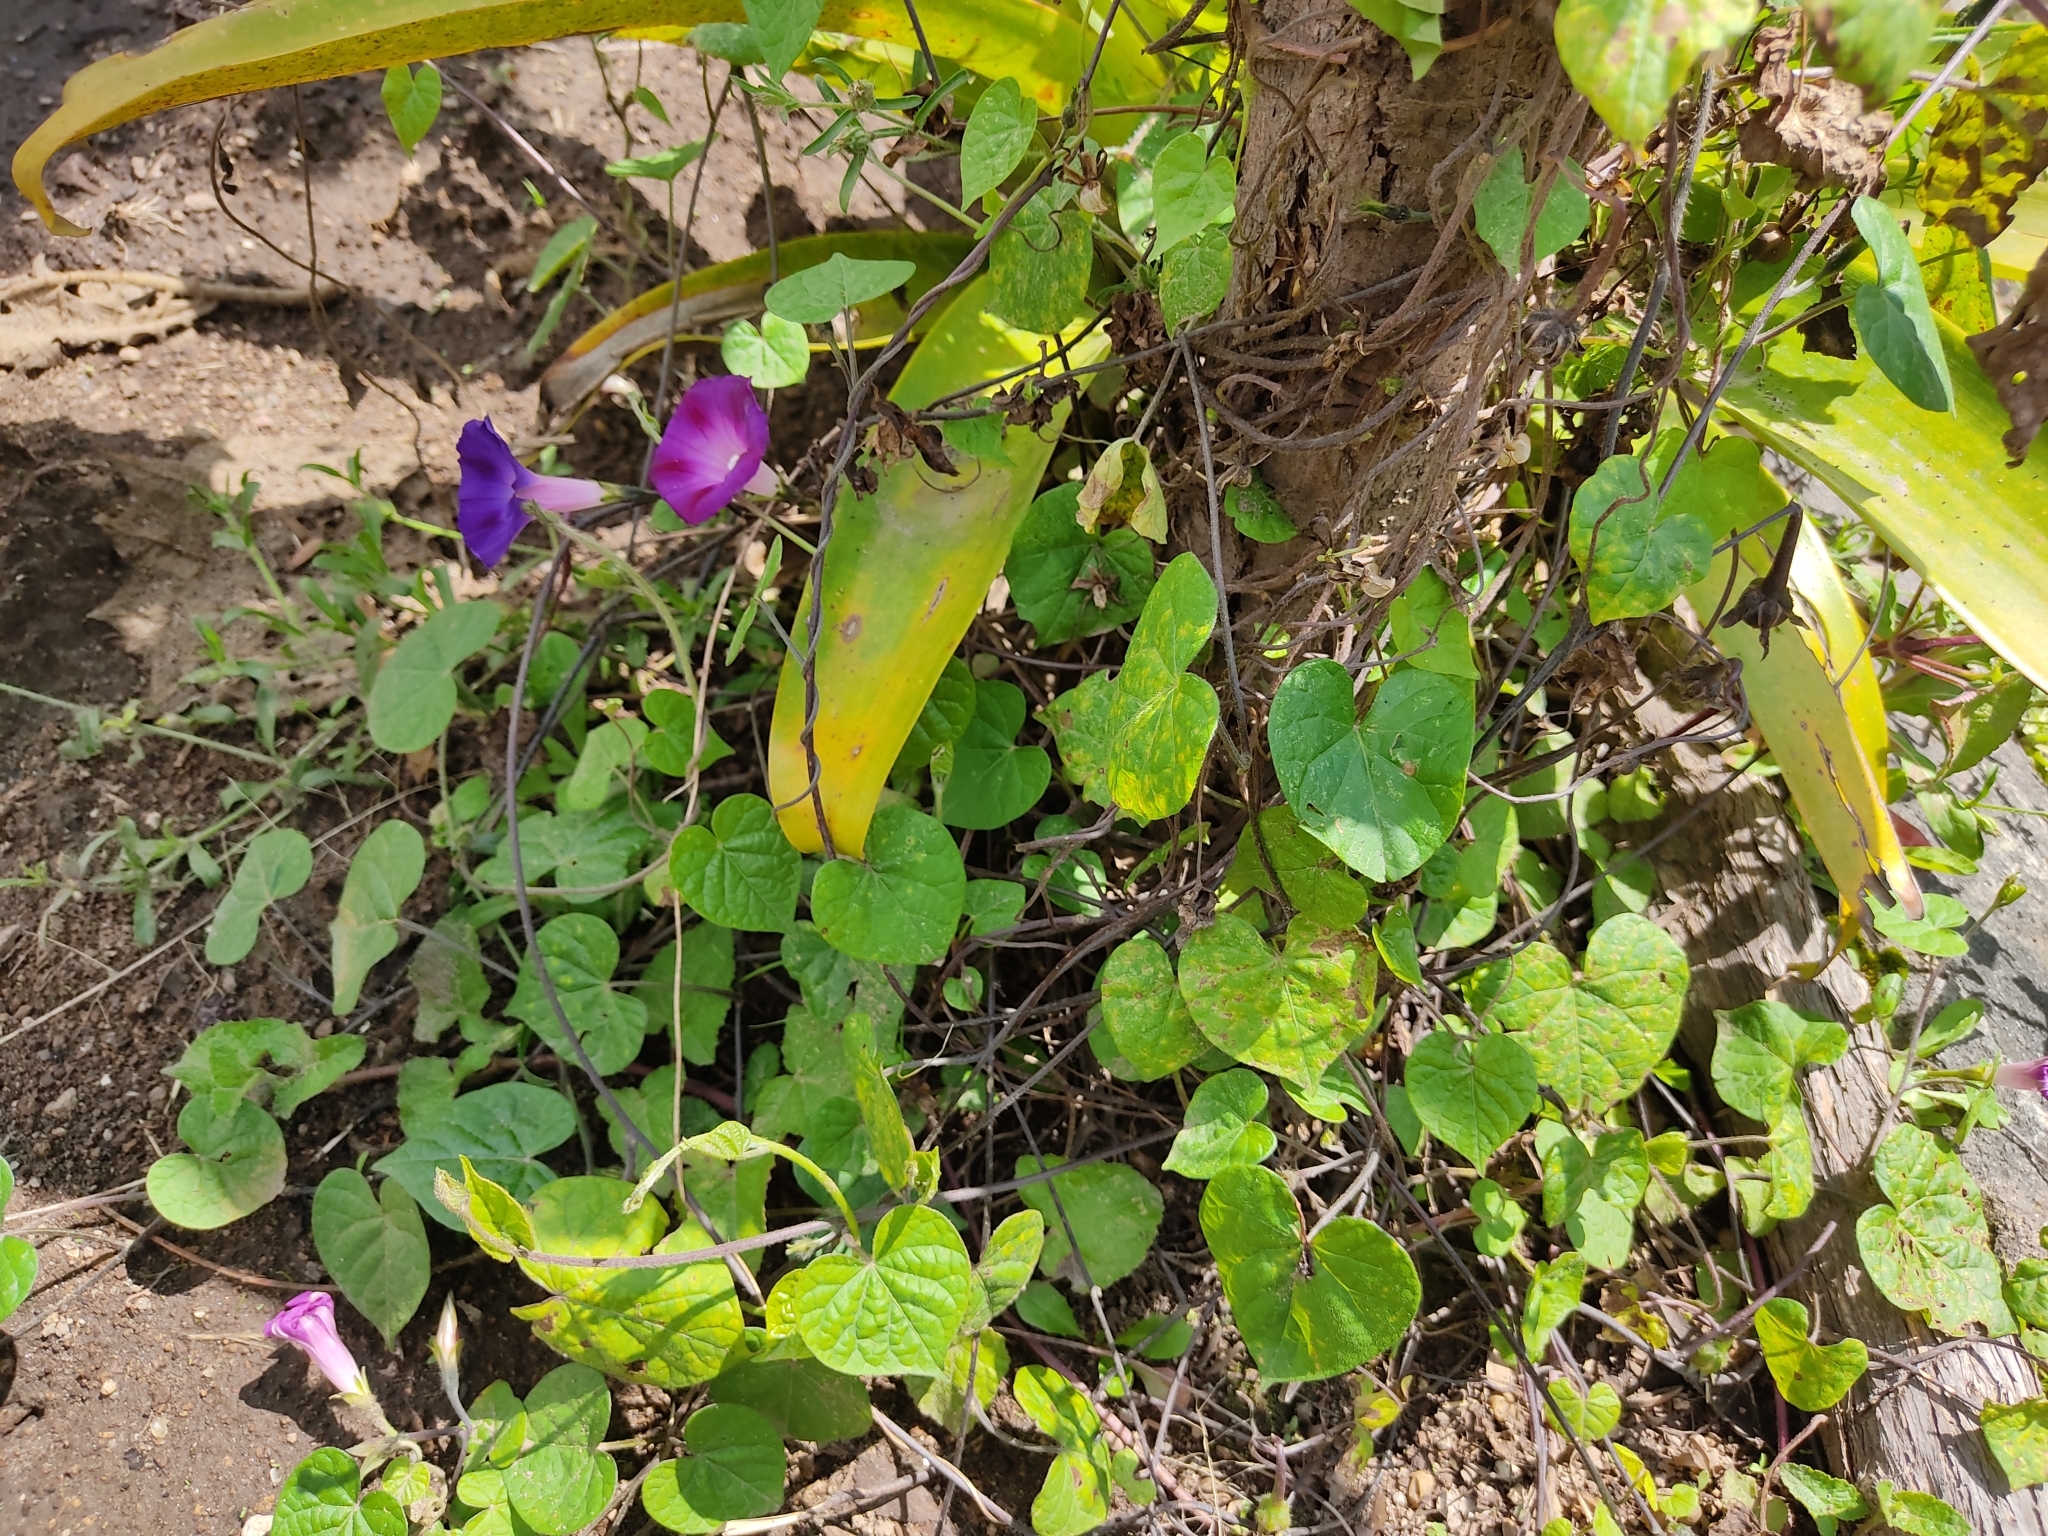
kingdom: Plantae
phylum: Tracheophyta
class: Magnoliopsida
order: Solanales
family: Convolvulaceae
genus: Ipomoea
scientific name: Ipomoea purpurea
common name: Common morning-glory
